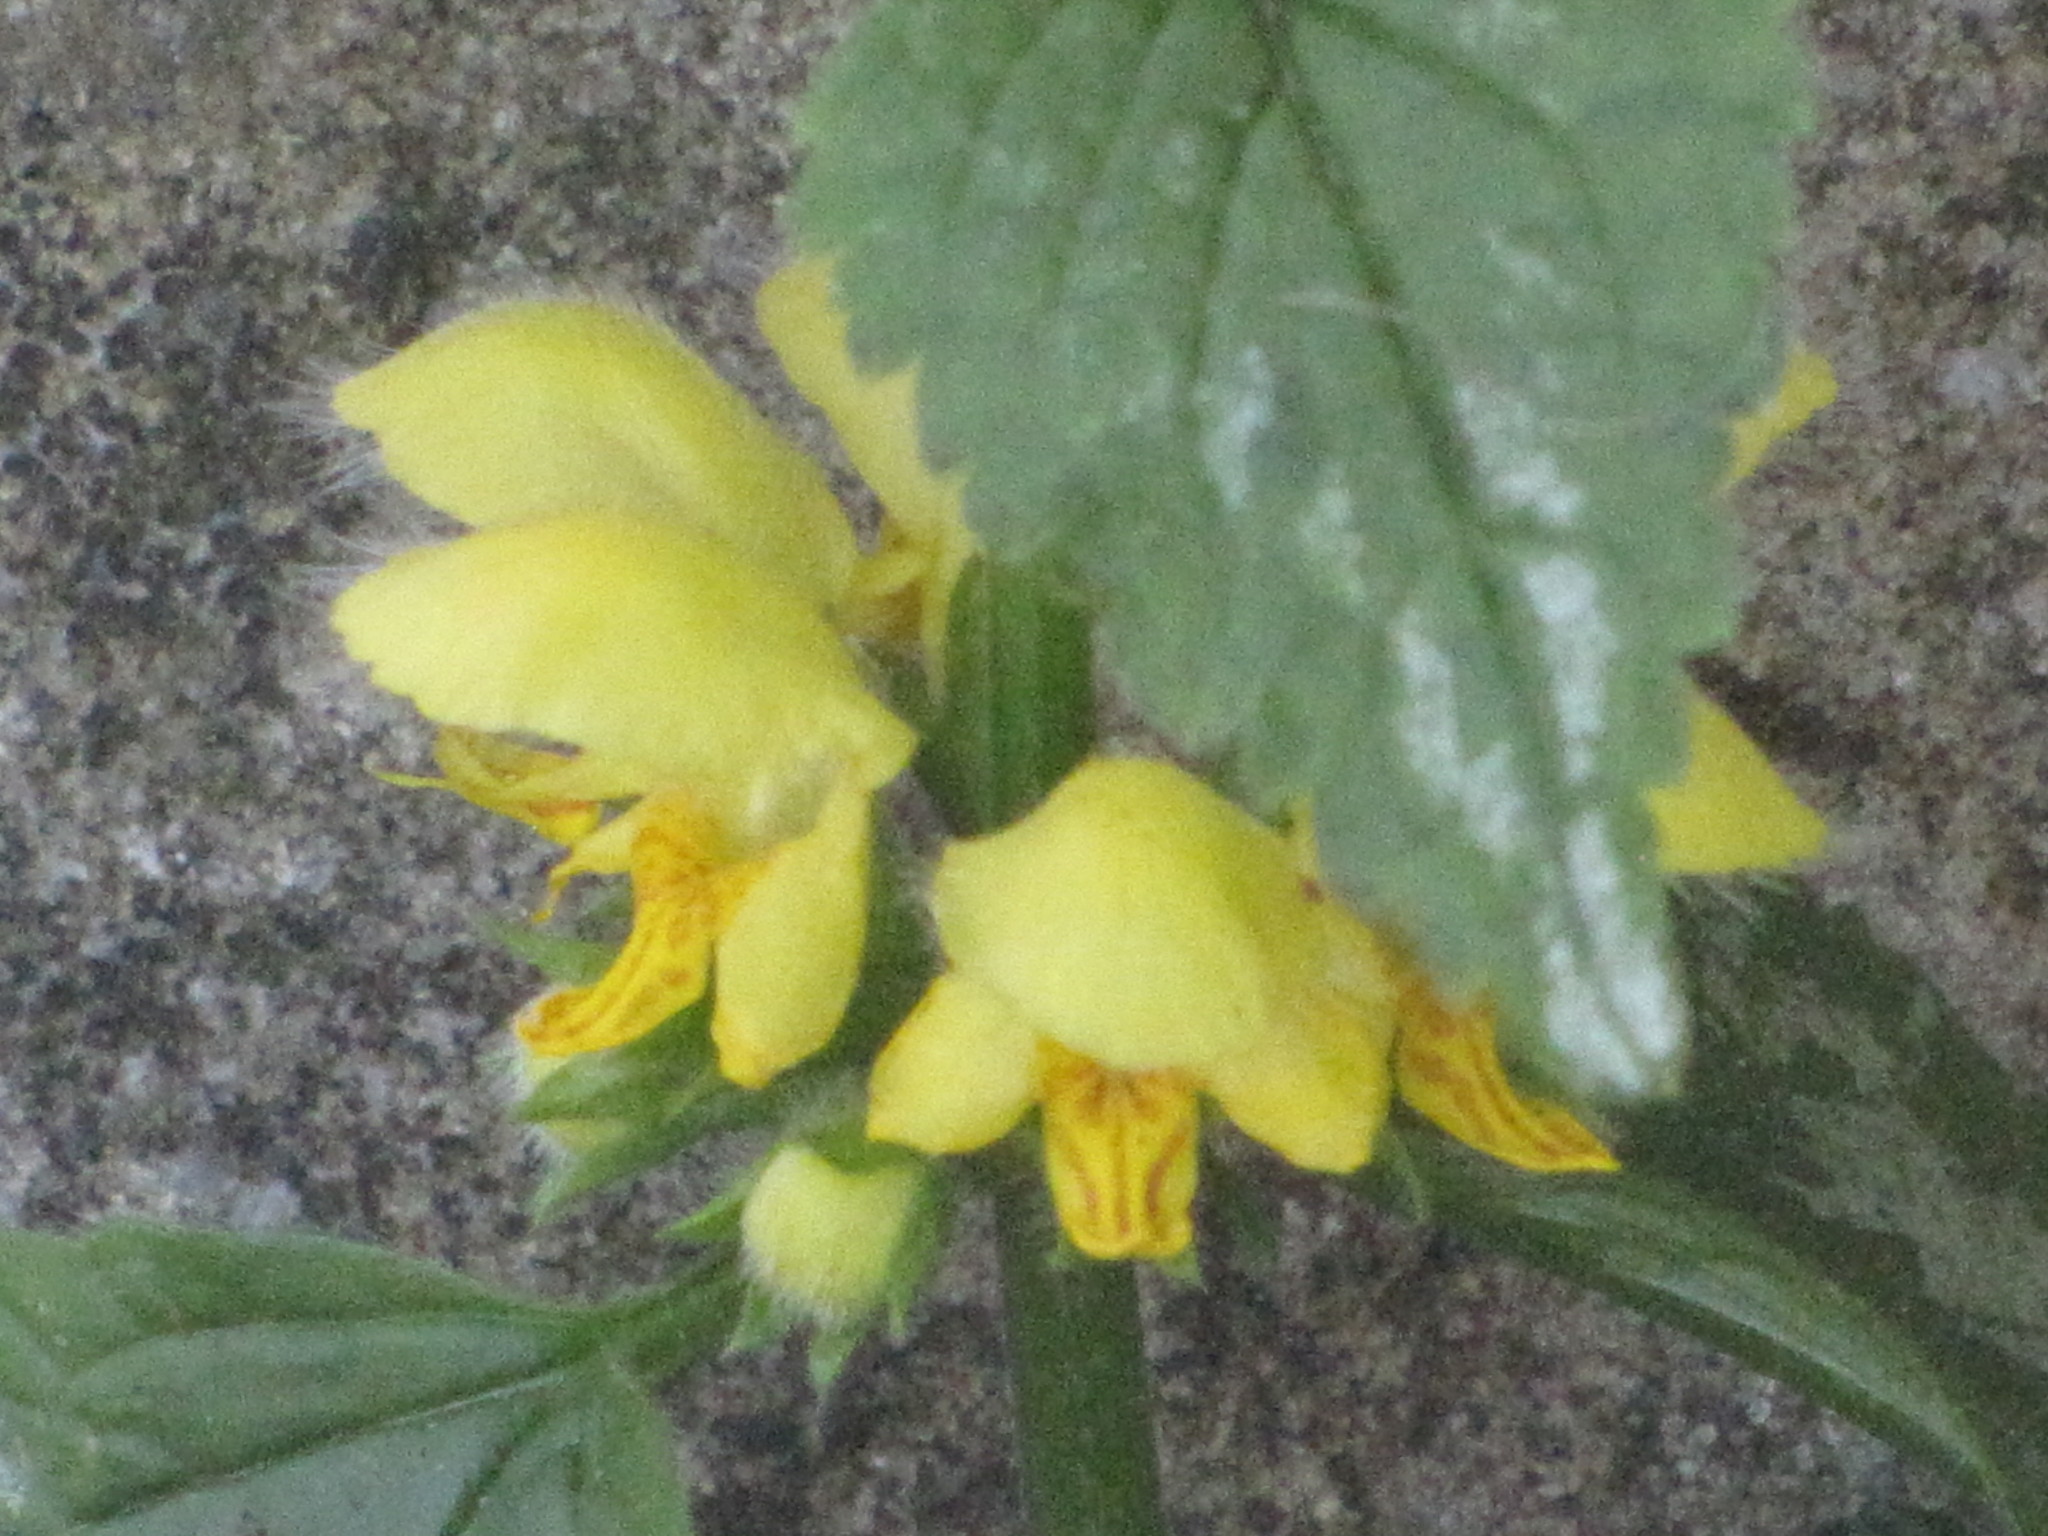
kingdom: Plantae
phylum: Tracheophyta
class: Magnoliopsida
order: Lamiales
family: Lamiaceae
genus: Lamium
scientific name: Lamium galeobdolon
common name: Yellow archangel
